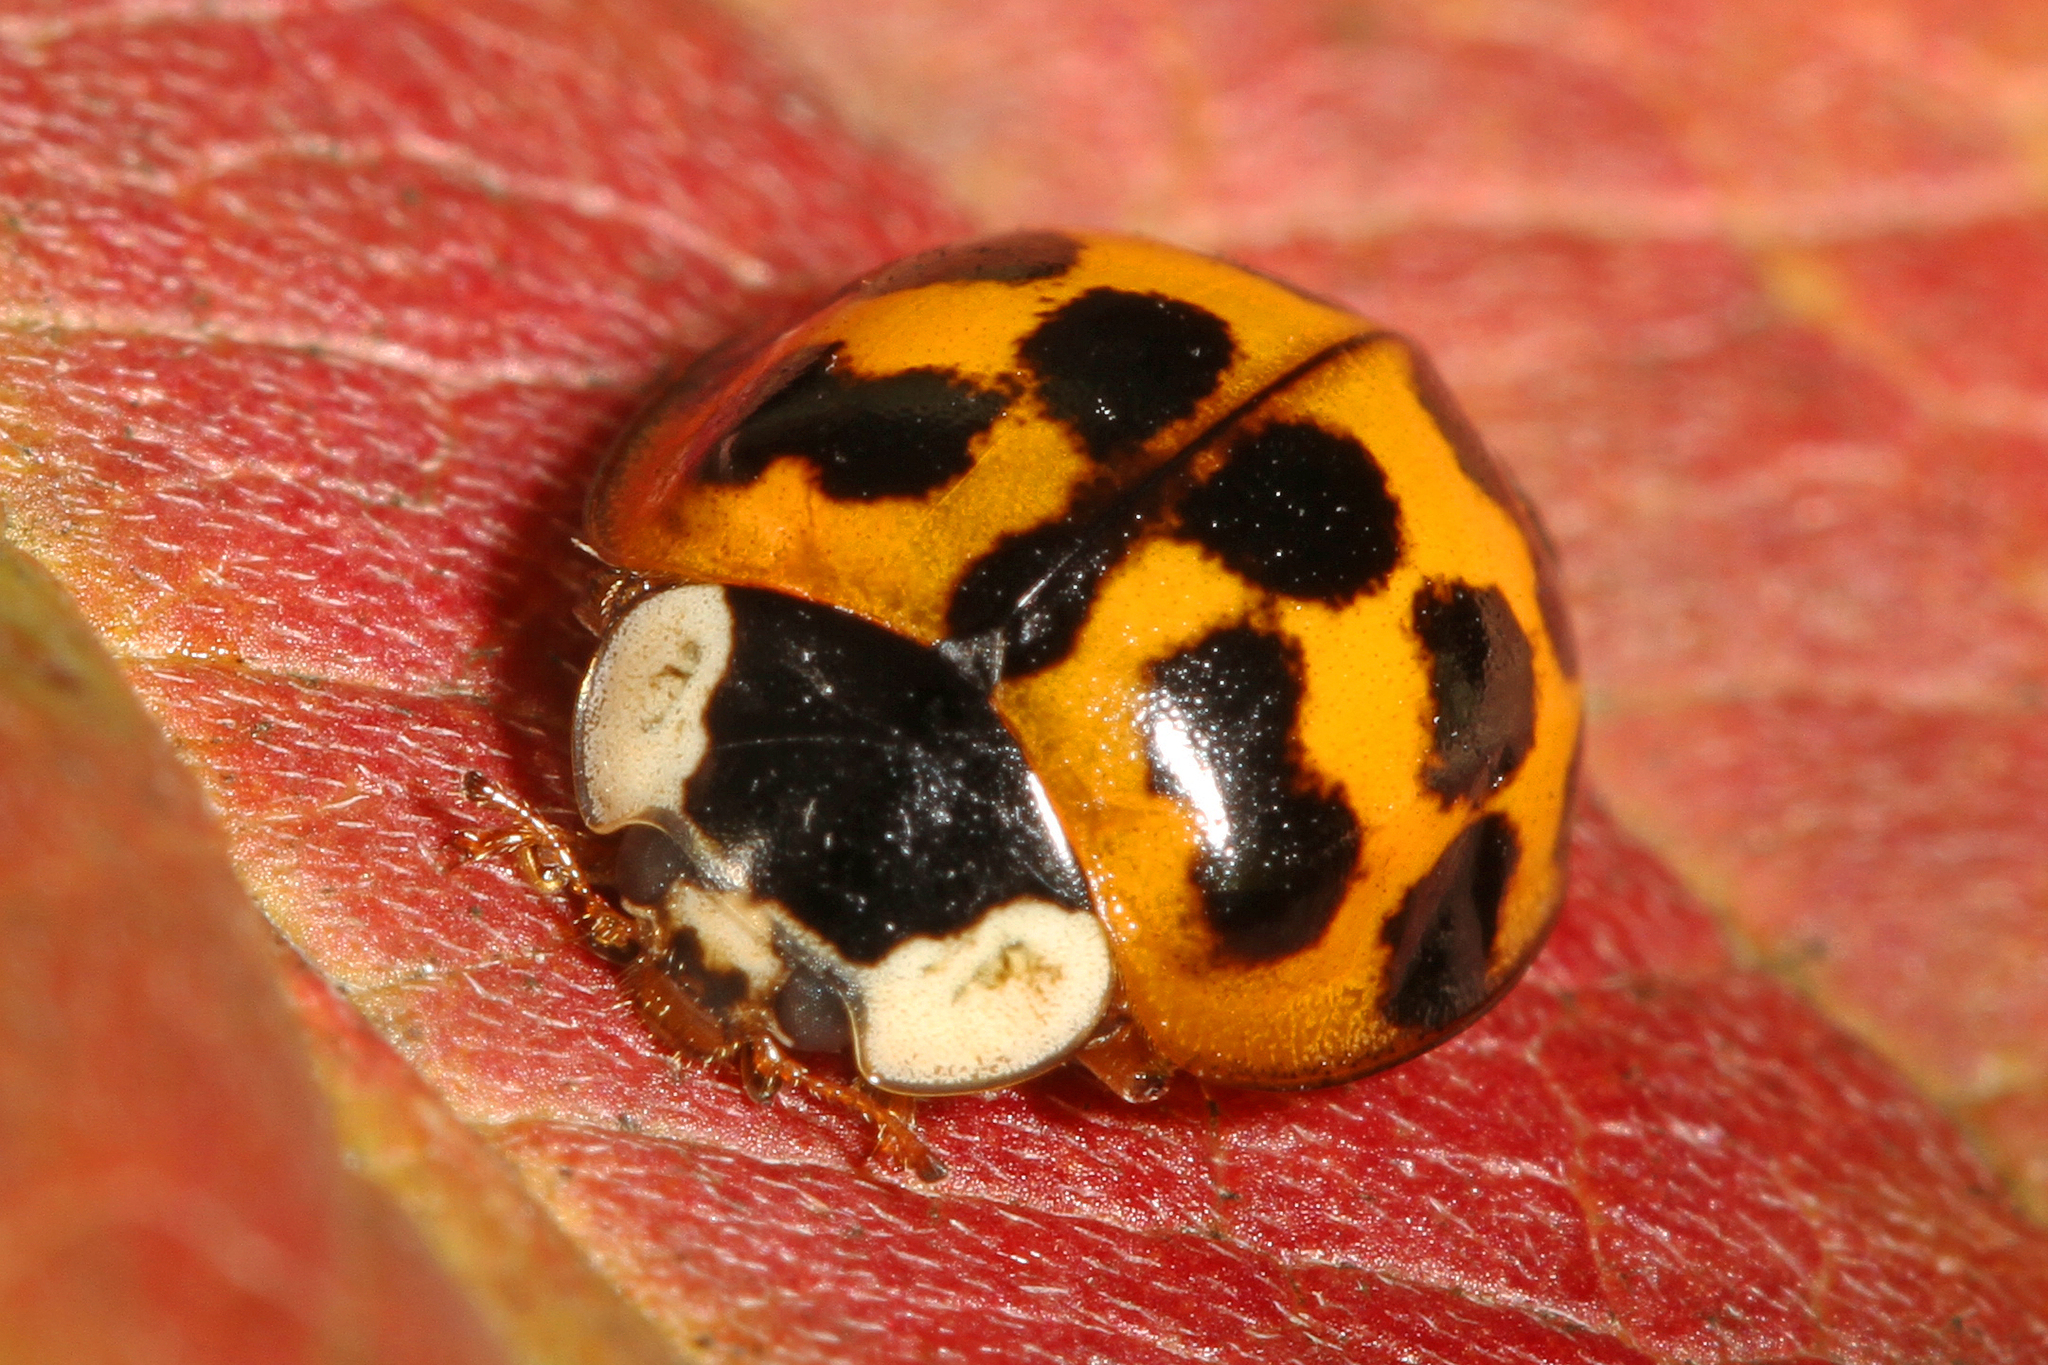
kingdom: Animalia
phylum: Arthropoda
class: Insecta
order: Coleoptera
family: Coccinellidae
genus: Harmonia
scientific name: Harmonia axyridis
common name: Harlequin ladybird
